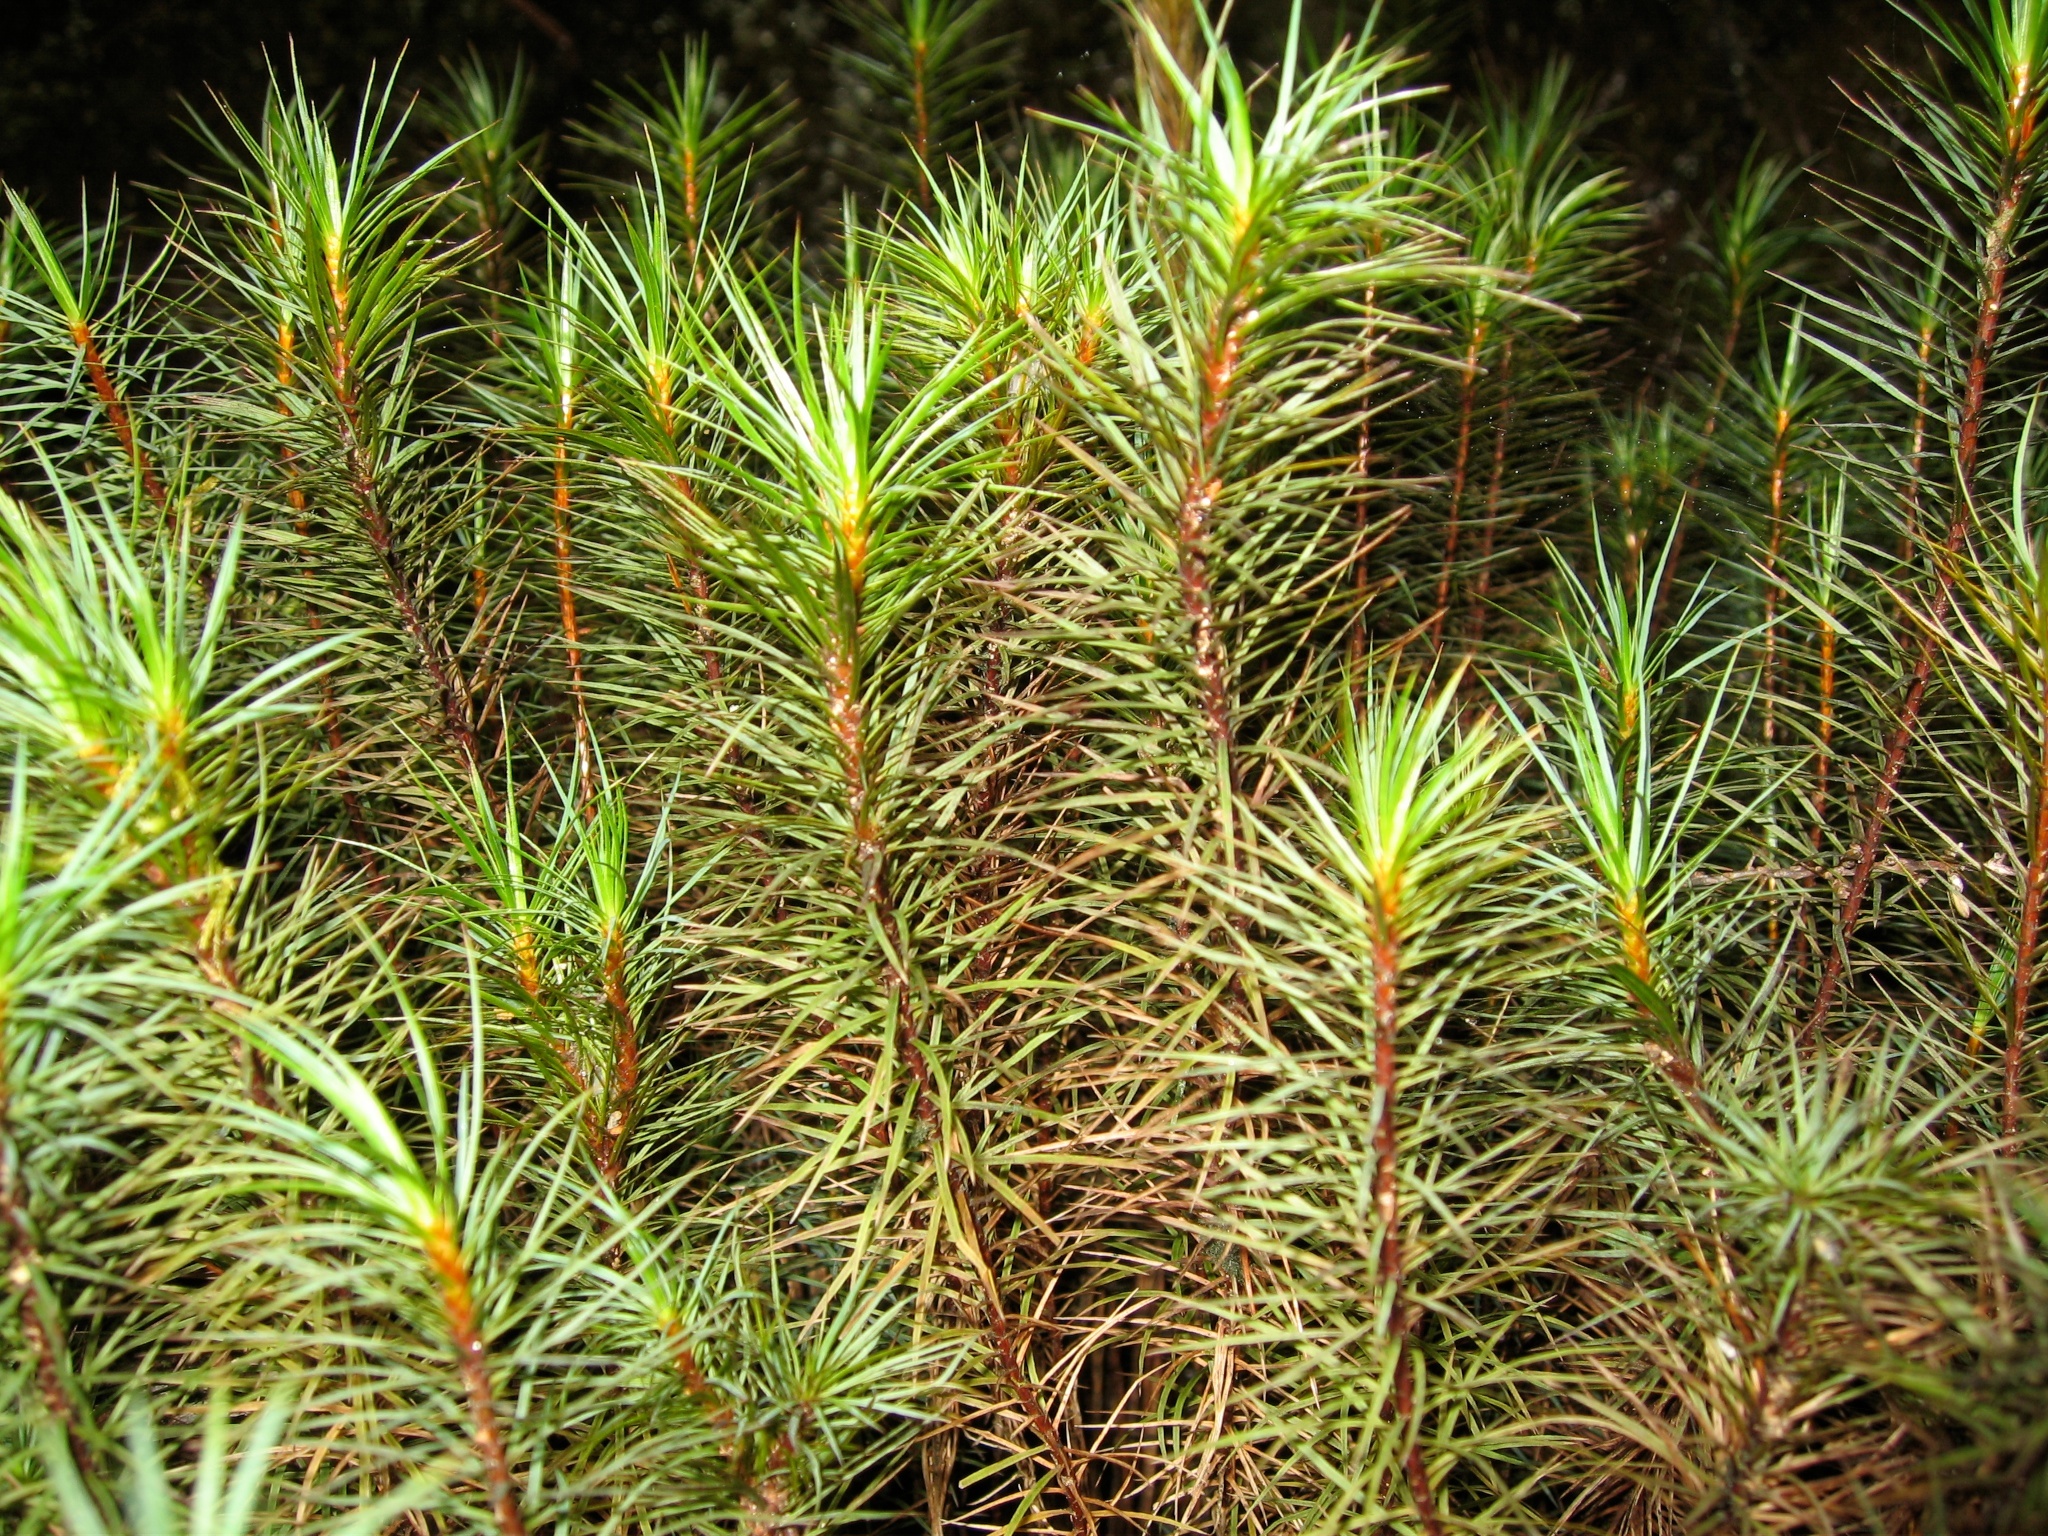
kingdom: Plantae
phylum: Bryophyta
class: Polytrichopsida
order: Polytrichales
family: Polytrichaceae
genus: Dawsonia
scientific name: Dawsonia superba
